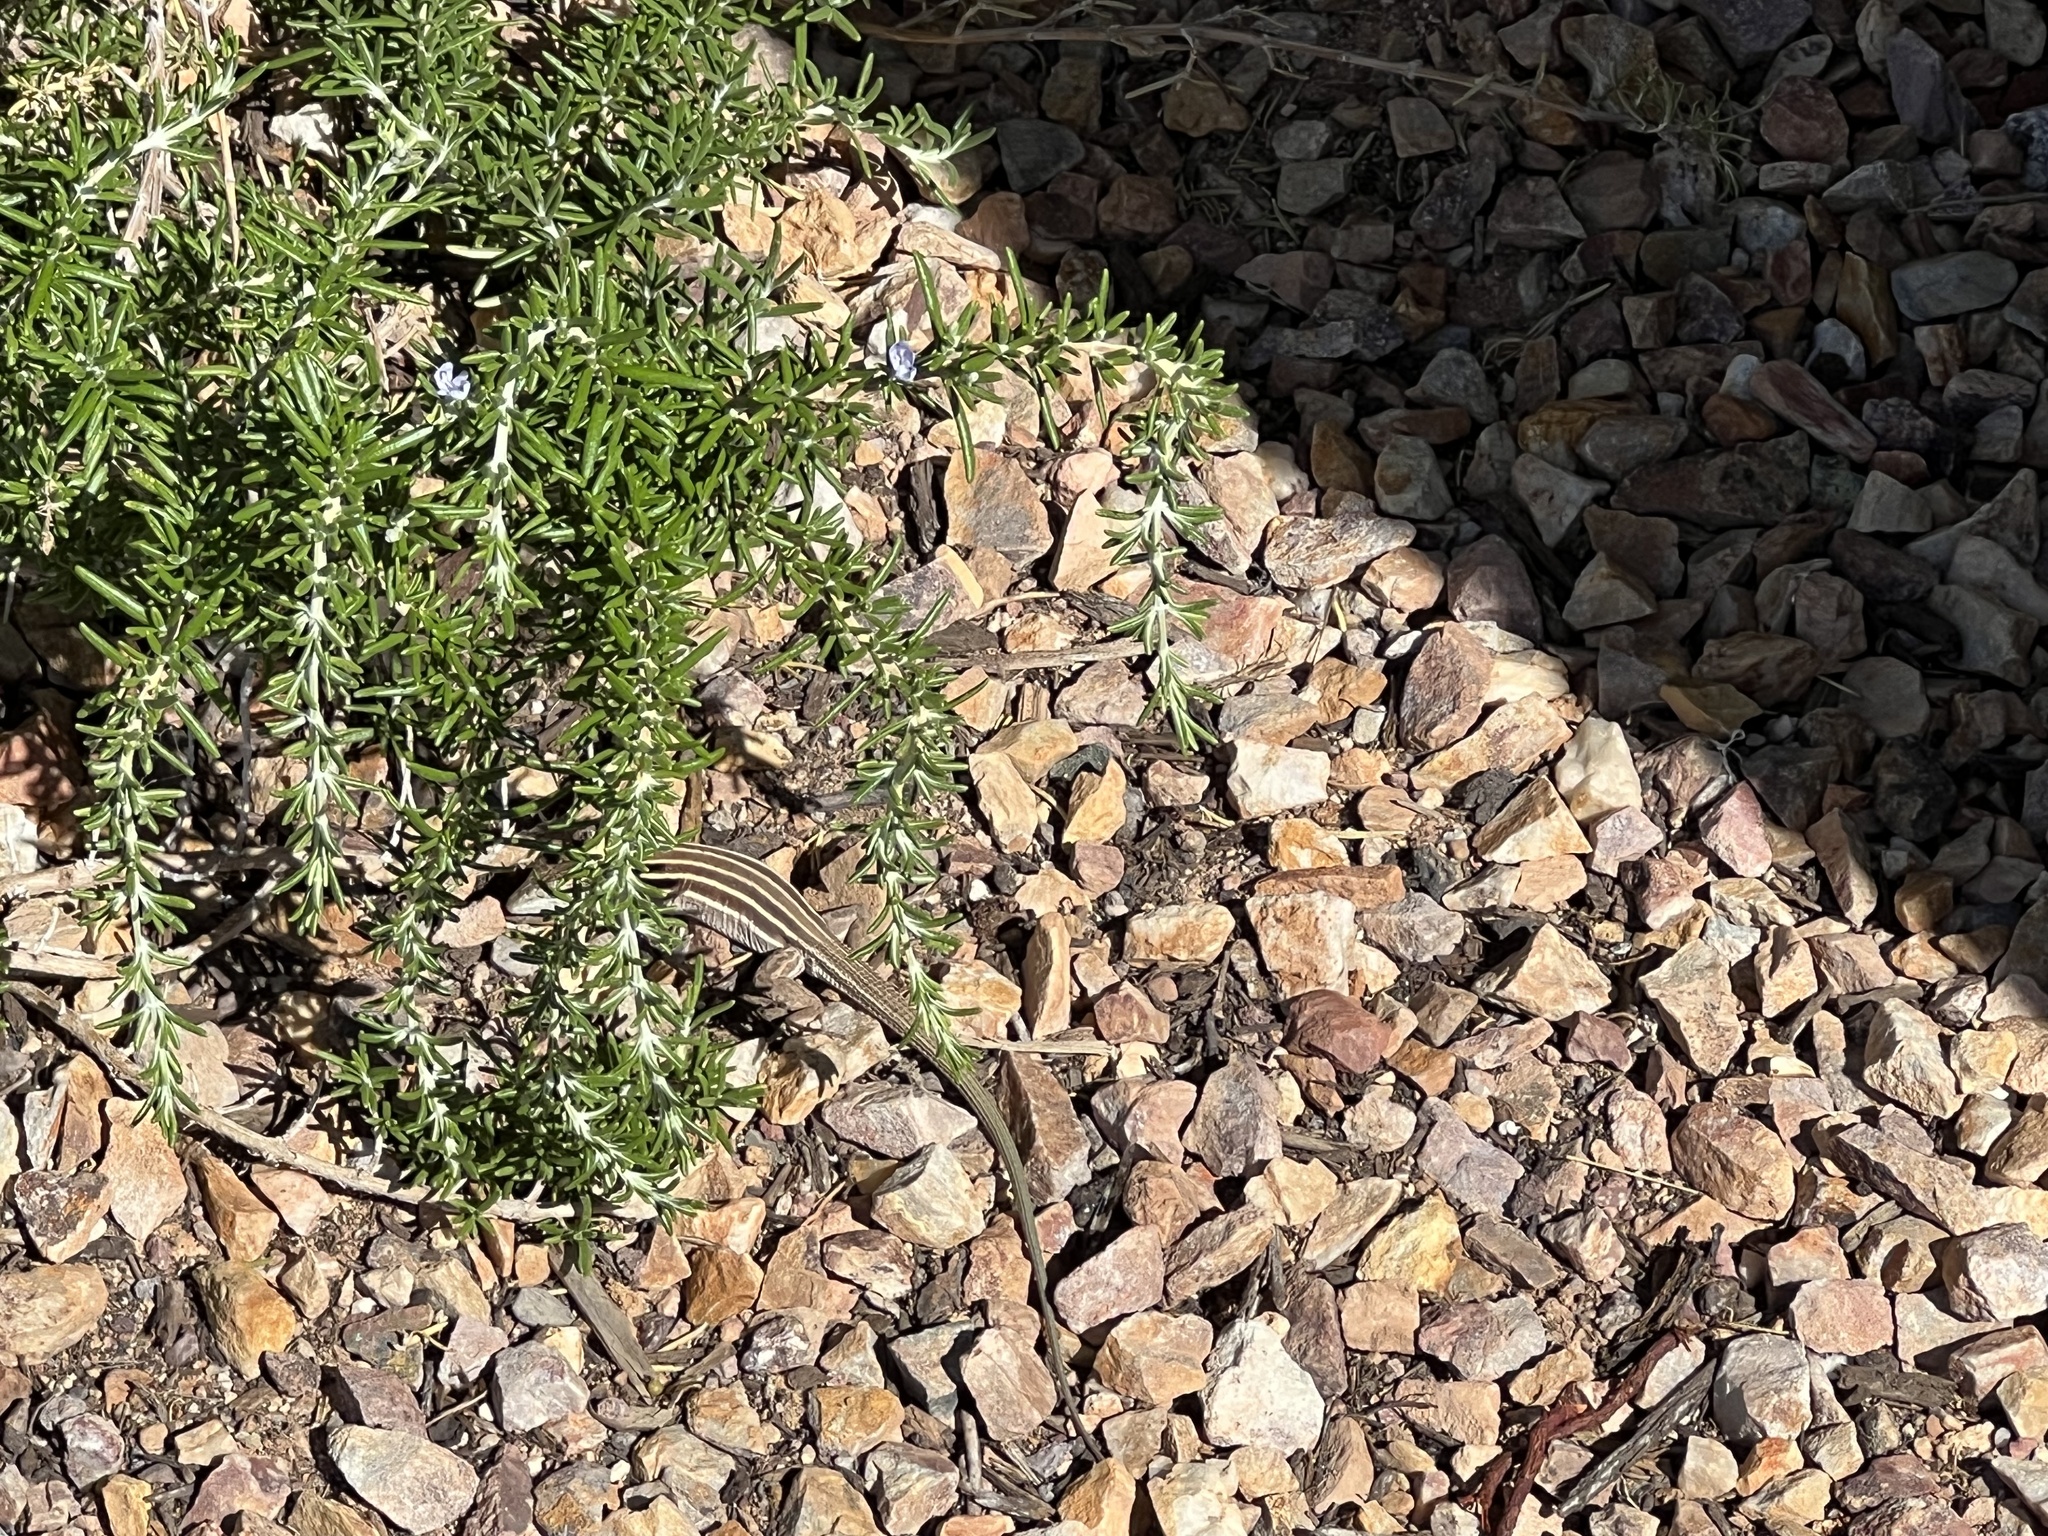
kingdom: Animalia
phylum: Chordata
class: Squamata
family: Teiidae
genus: Aspidoscelis
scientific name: Aspidoscelis uniparens
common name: Desert grassland whiptail
